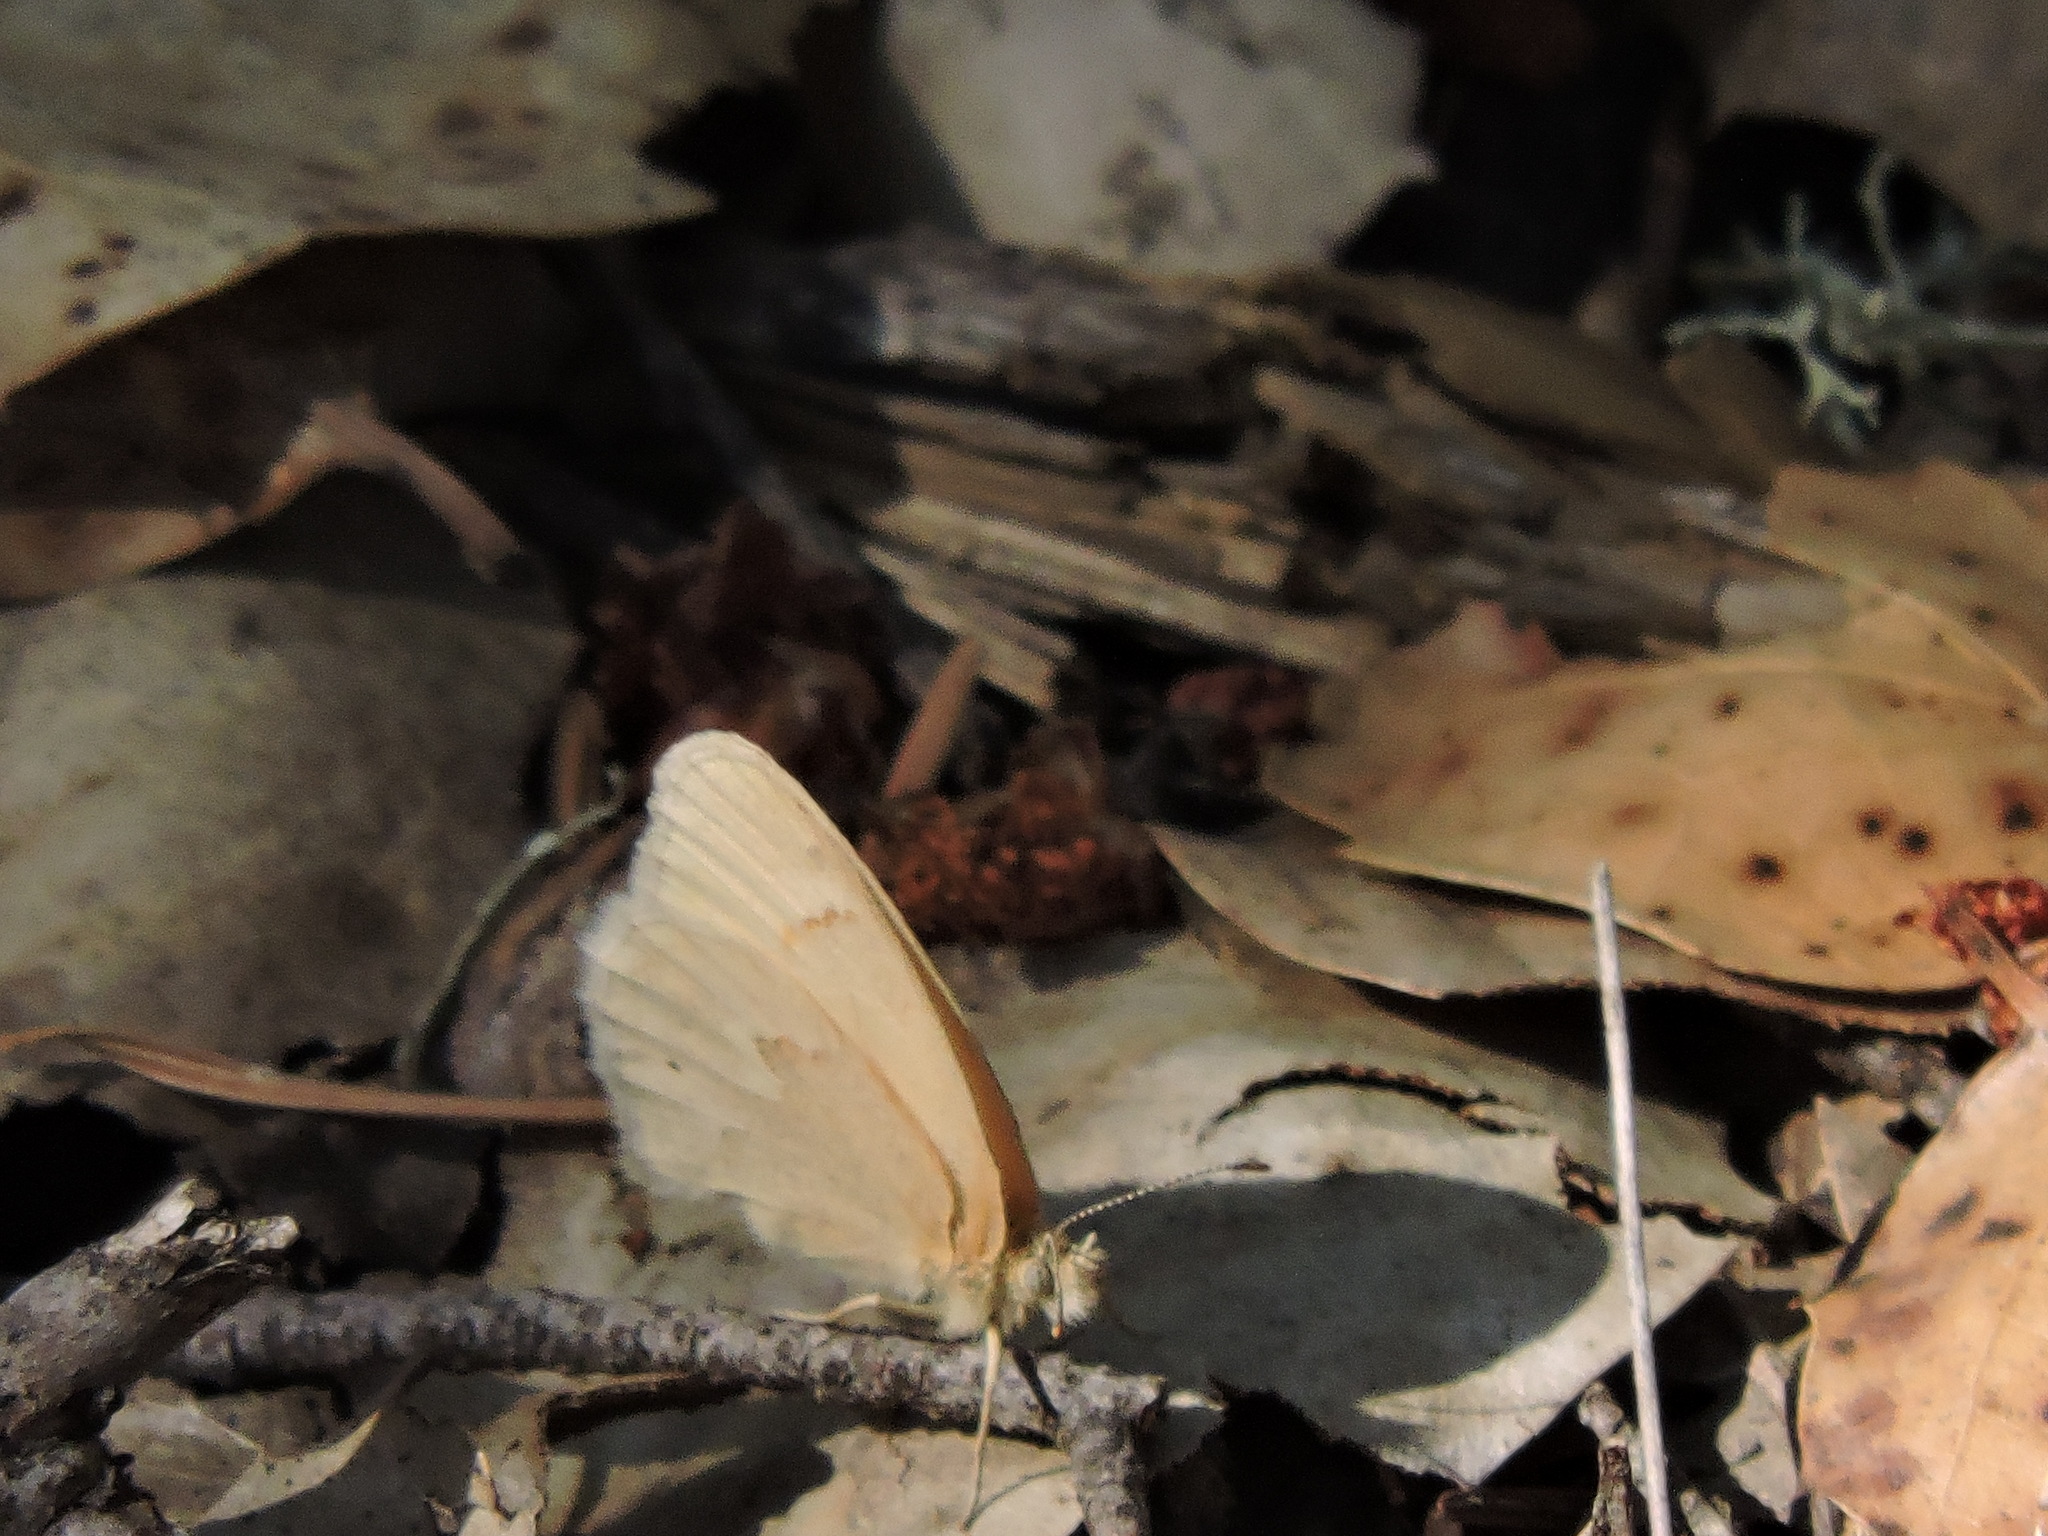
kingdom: Animalia
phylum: Arthropoda
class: Insecta
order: Lepidoptera
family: Nymphalidae
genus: Coenonympha
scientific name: Coenonympha california
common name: Common ringlet
